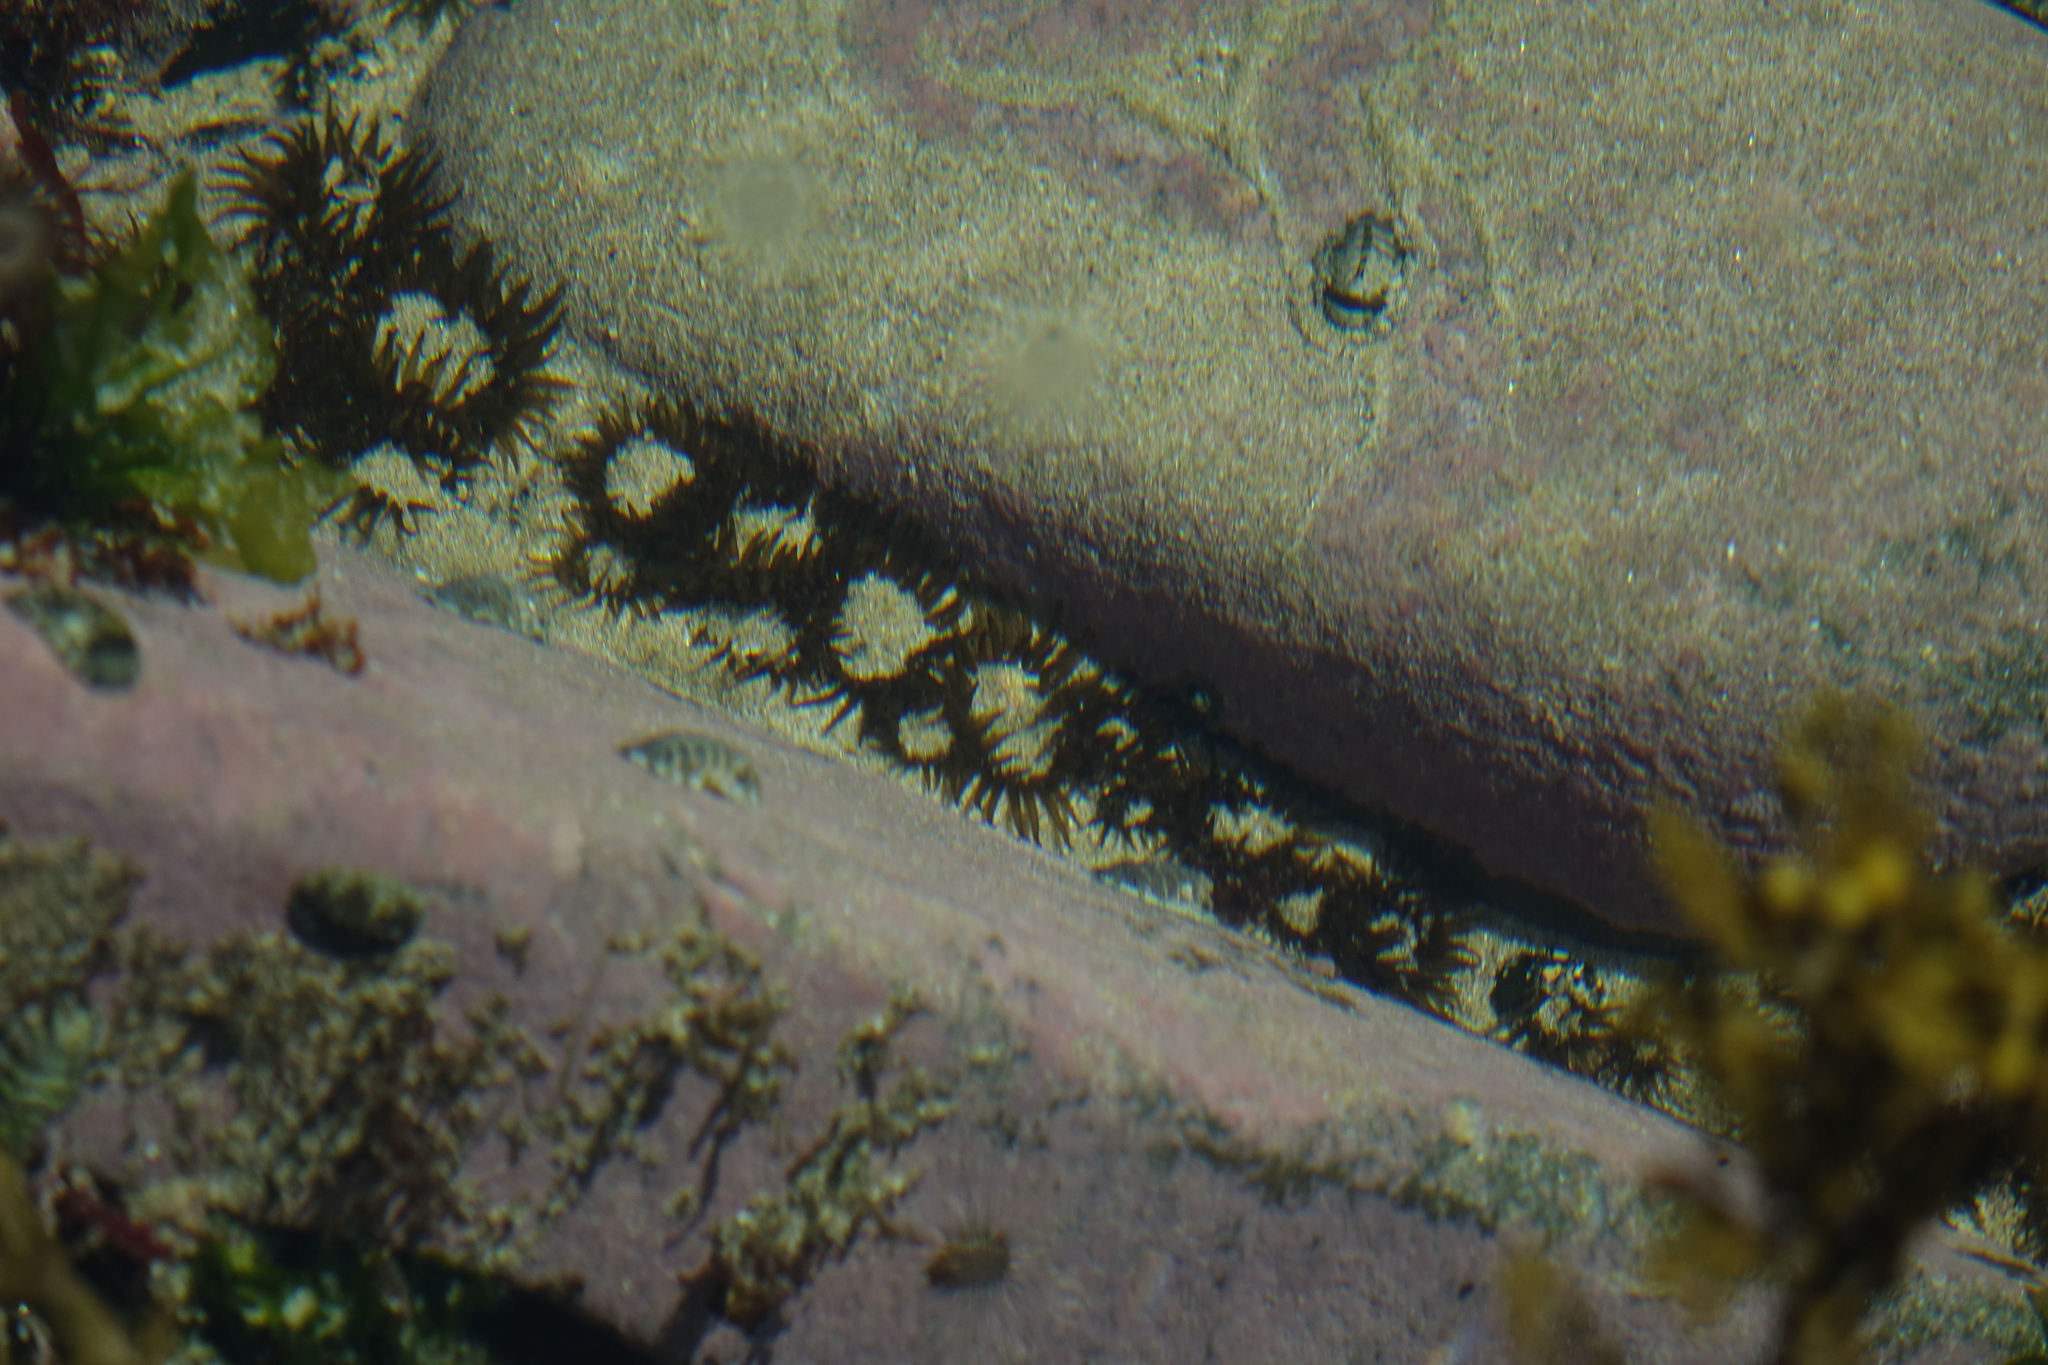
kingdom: Animalia
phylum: Cnidaria
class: Anthozoa
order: Actiniaria
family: Actiniidae
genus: Isactinia
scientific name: Isactinia olivacea
